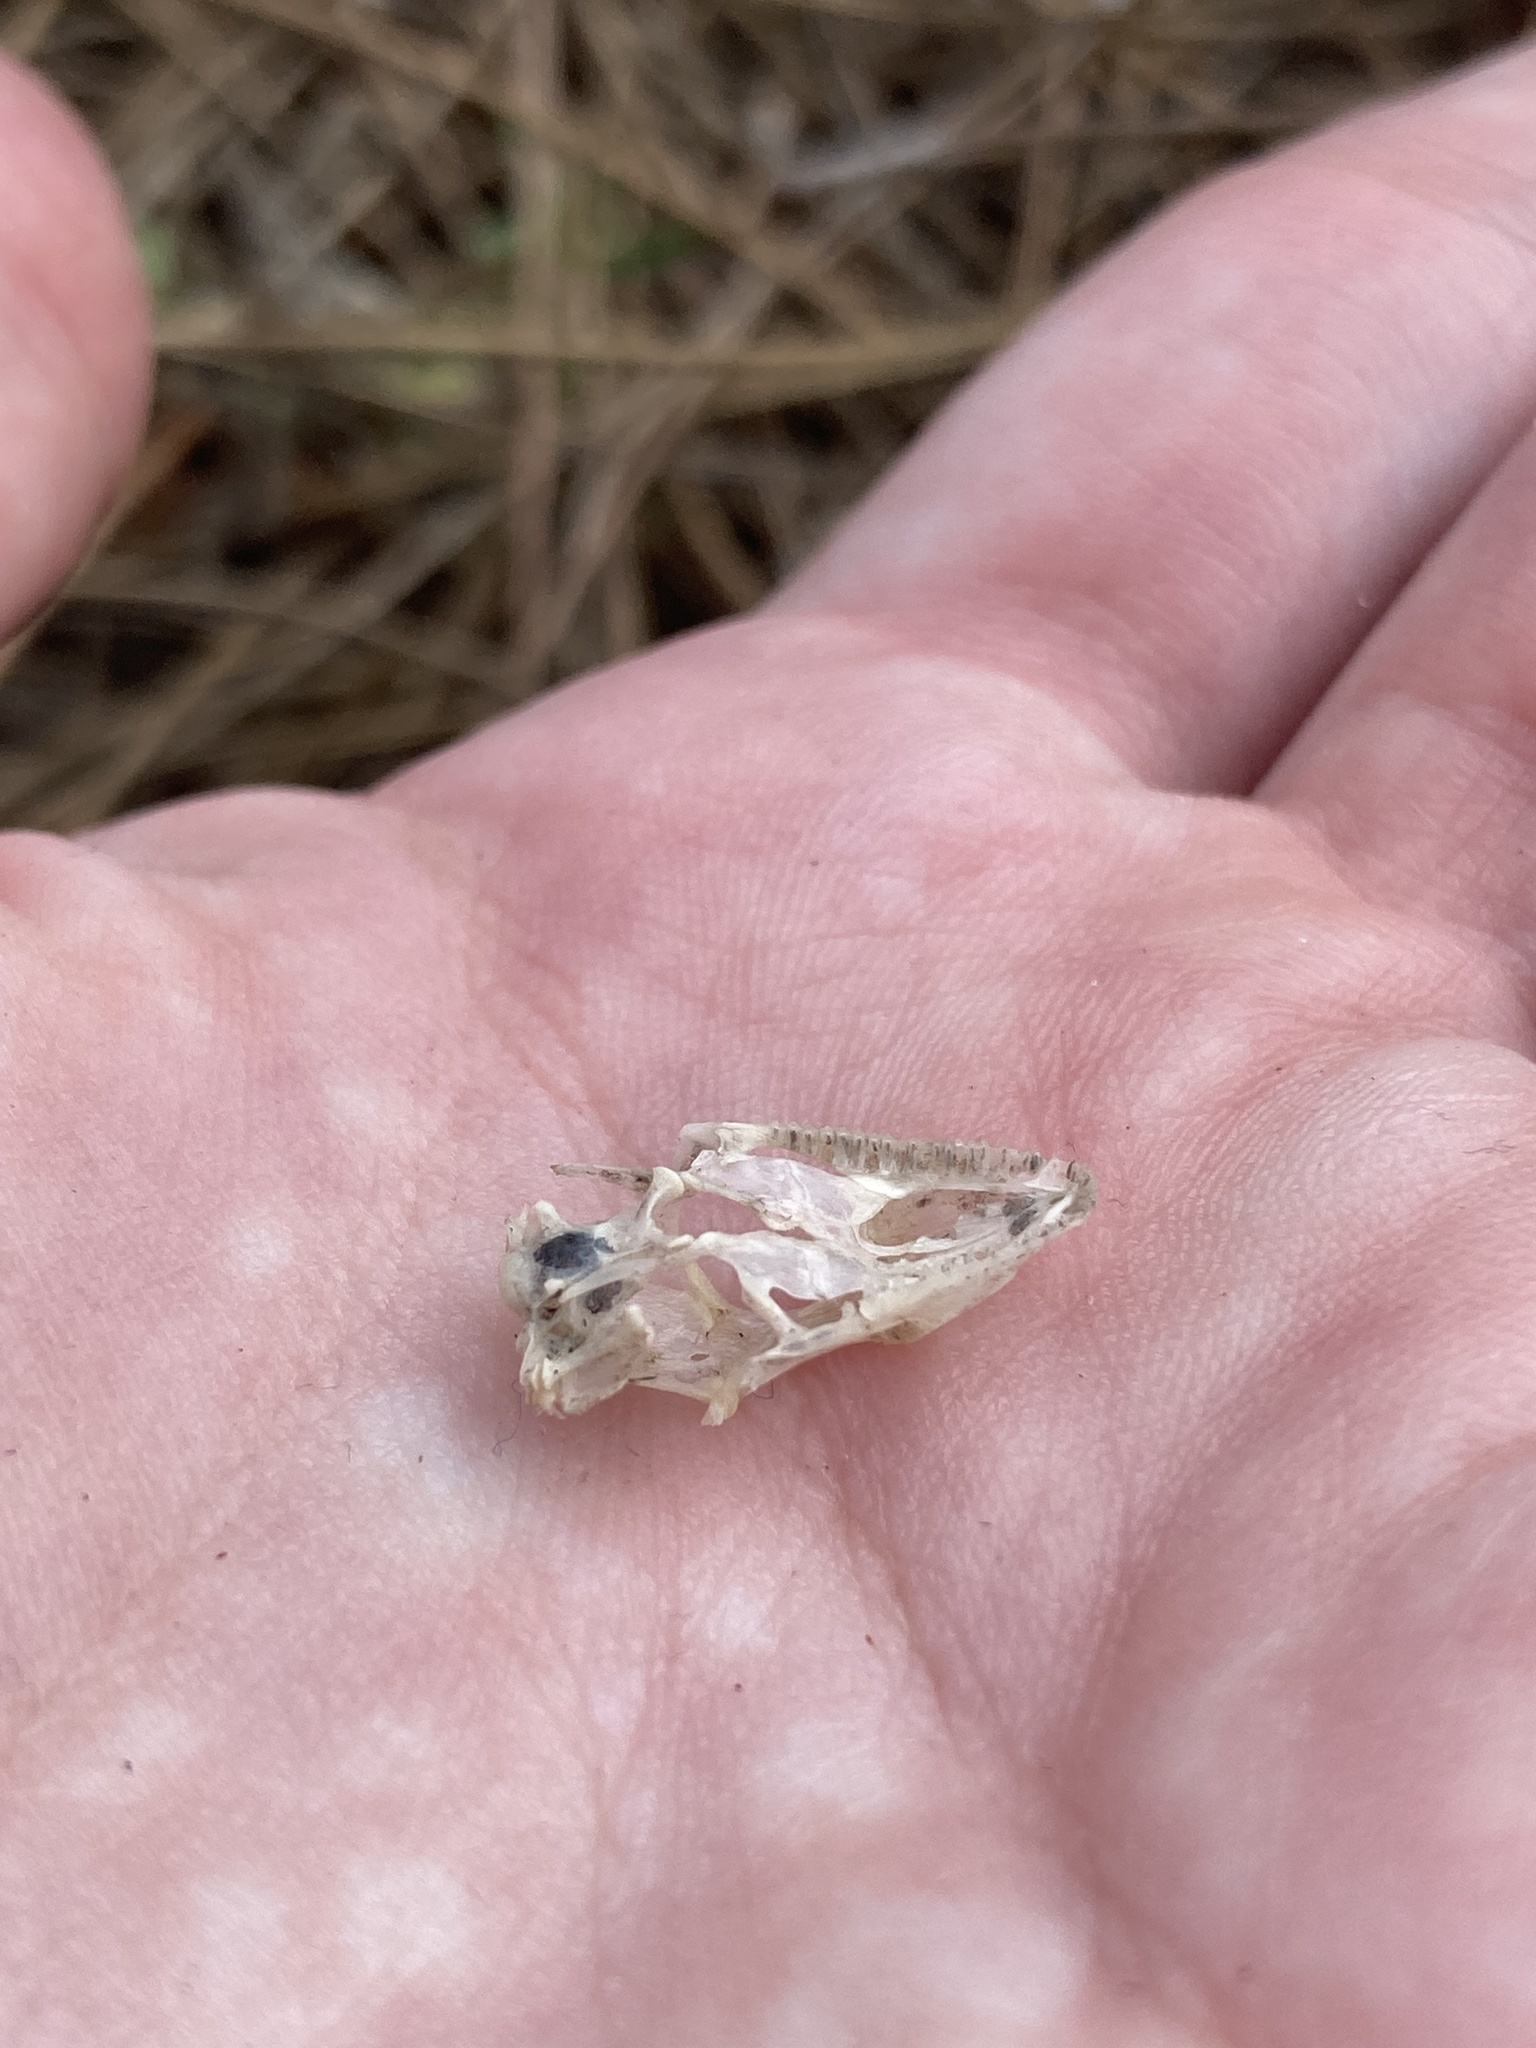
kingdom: Animalia
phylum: Chordata
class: Squamata
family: Dactyloidae
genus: Anolis
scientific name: Anolis
